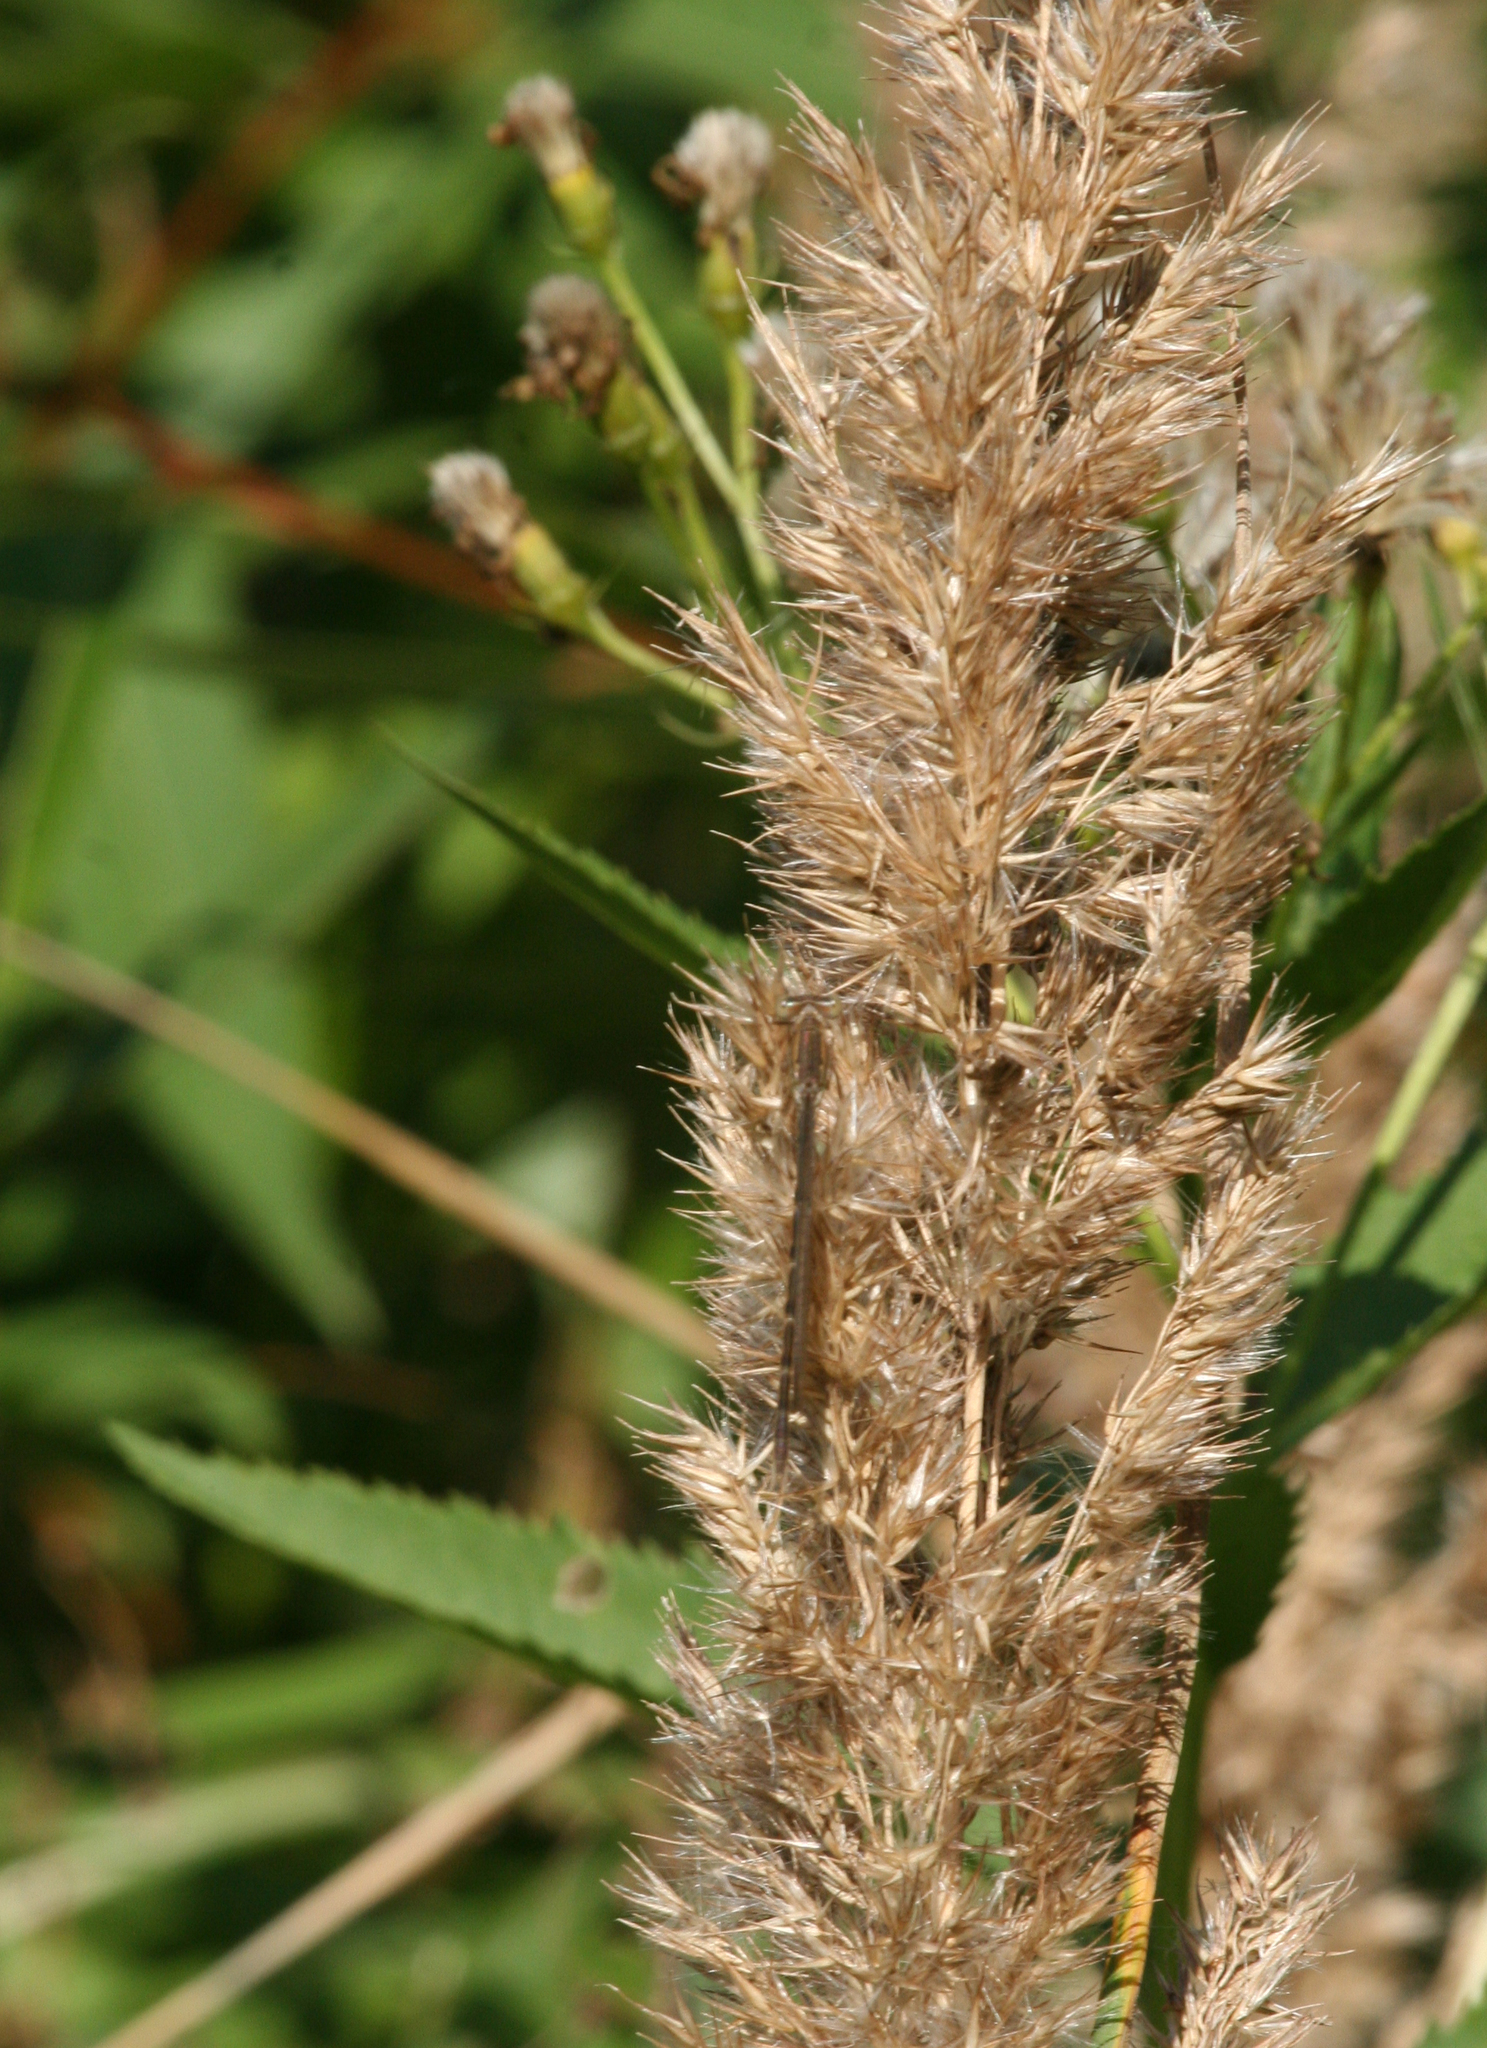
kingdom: Animalia
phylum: Arthropoda
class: Insecta
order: Odonata
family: Lestidae
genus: Sympecma
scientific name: Sympecma paedisca
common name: Siberian winter damsel
